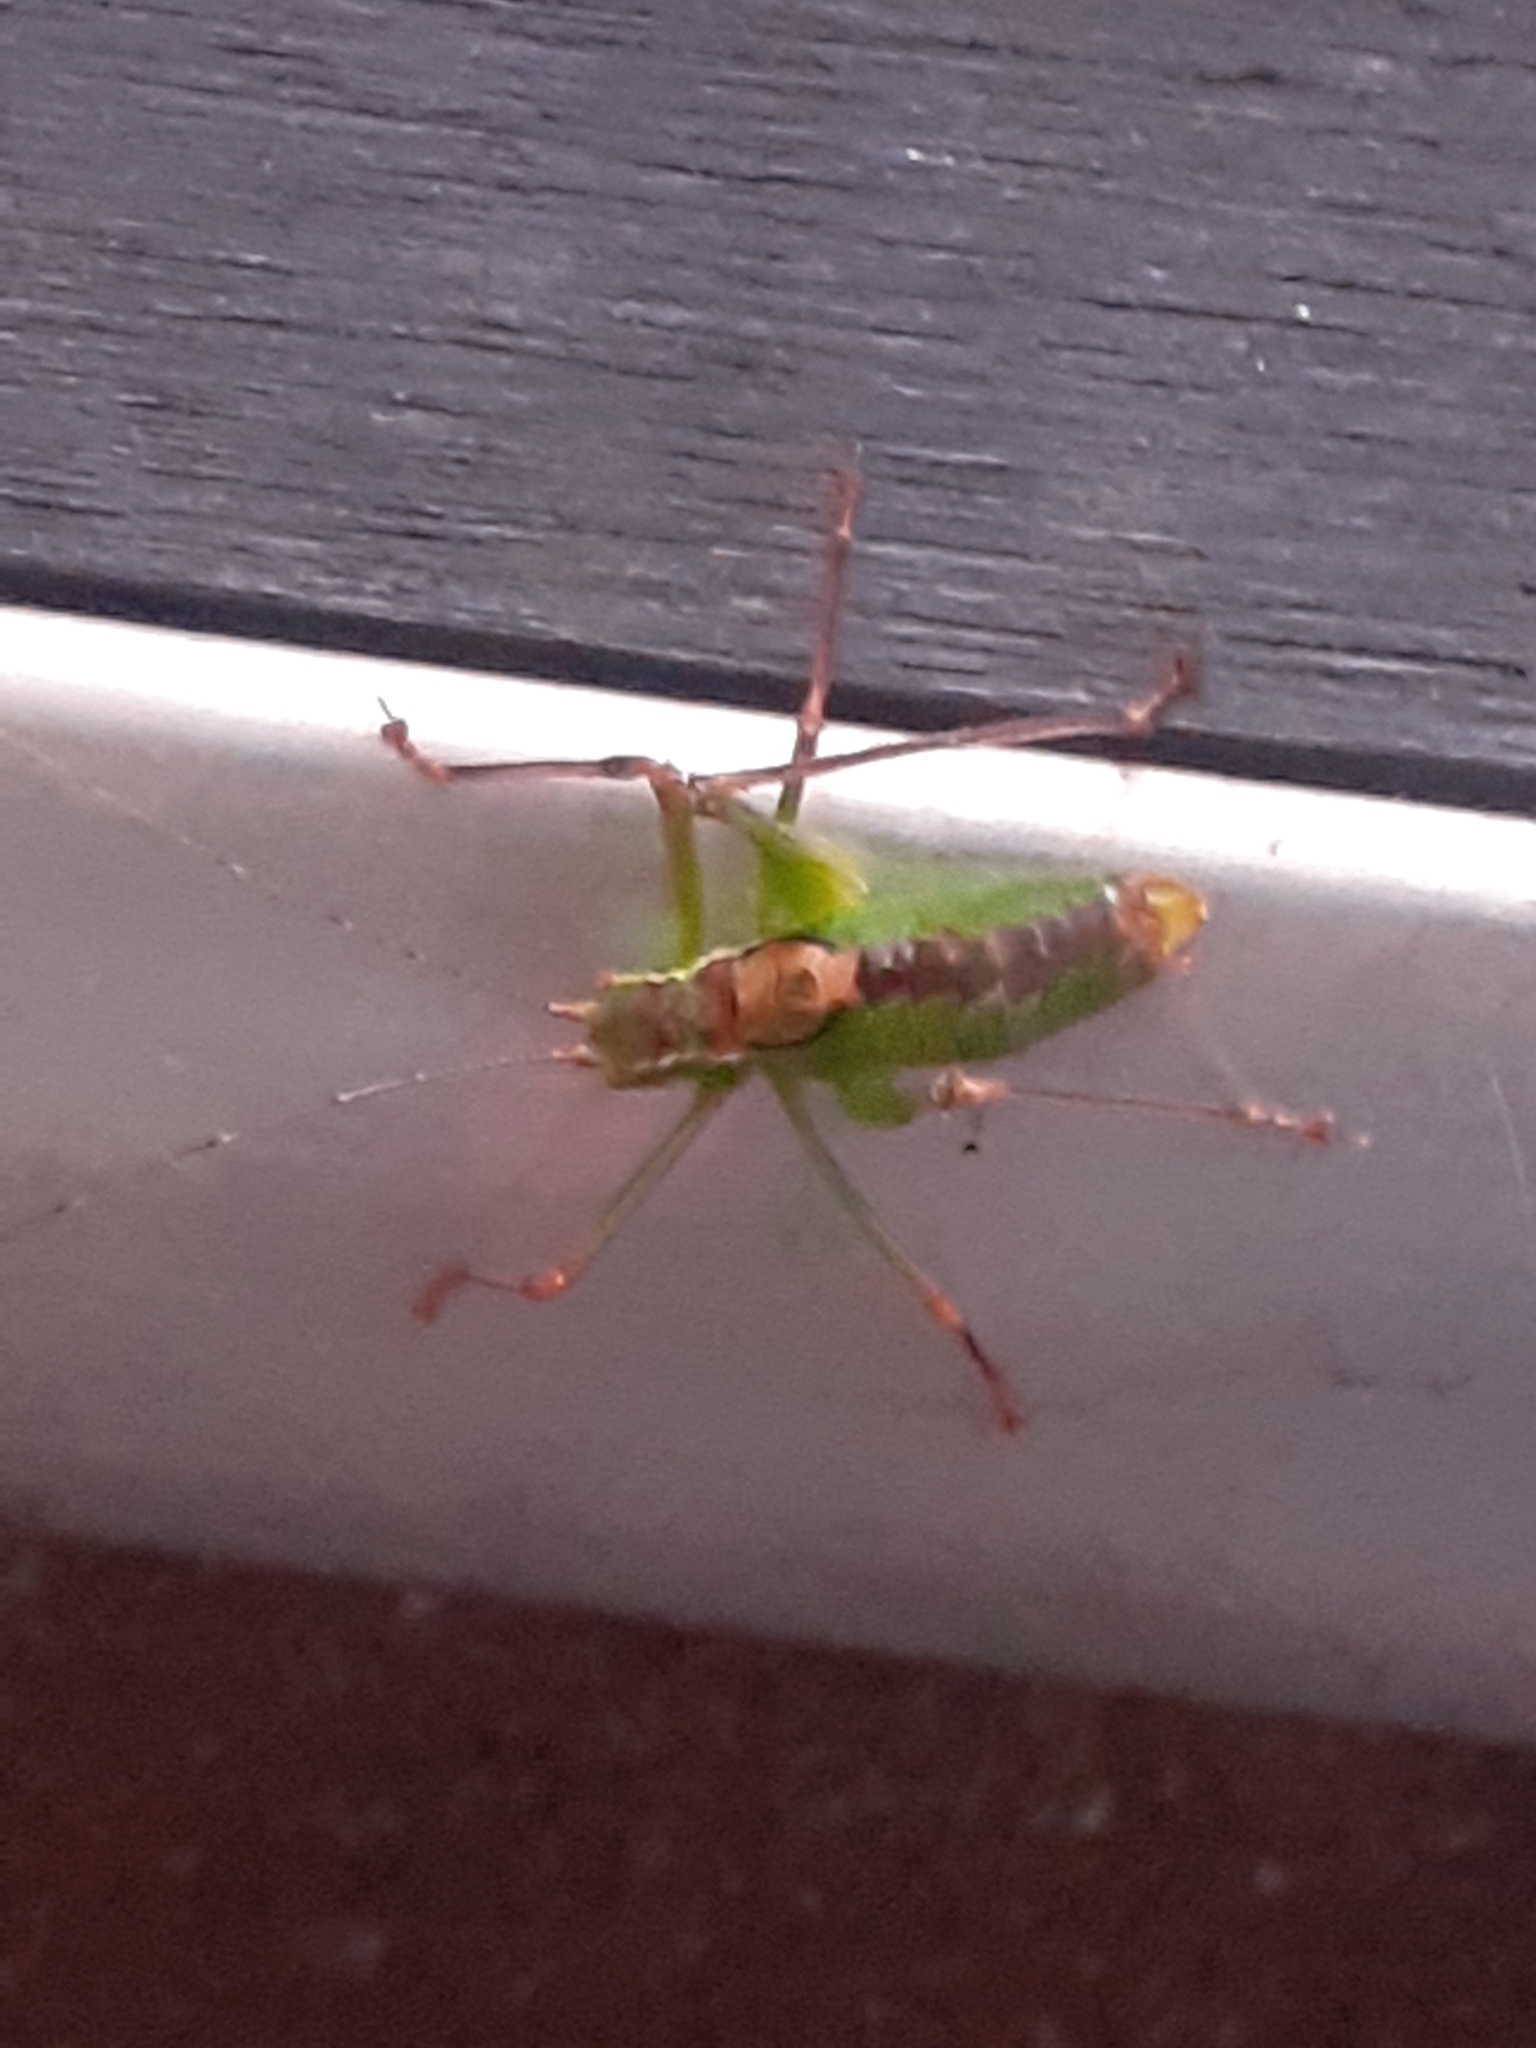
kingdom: Animalia
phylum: Arthropoda
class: Insecta
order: Orthoptera
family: Tettigoniidae
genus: Leptophyes
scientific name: Leptophyes punctatissima
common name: Speckled bush-cricket
